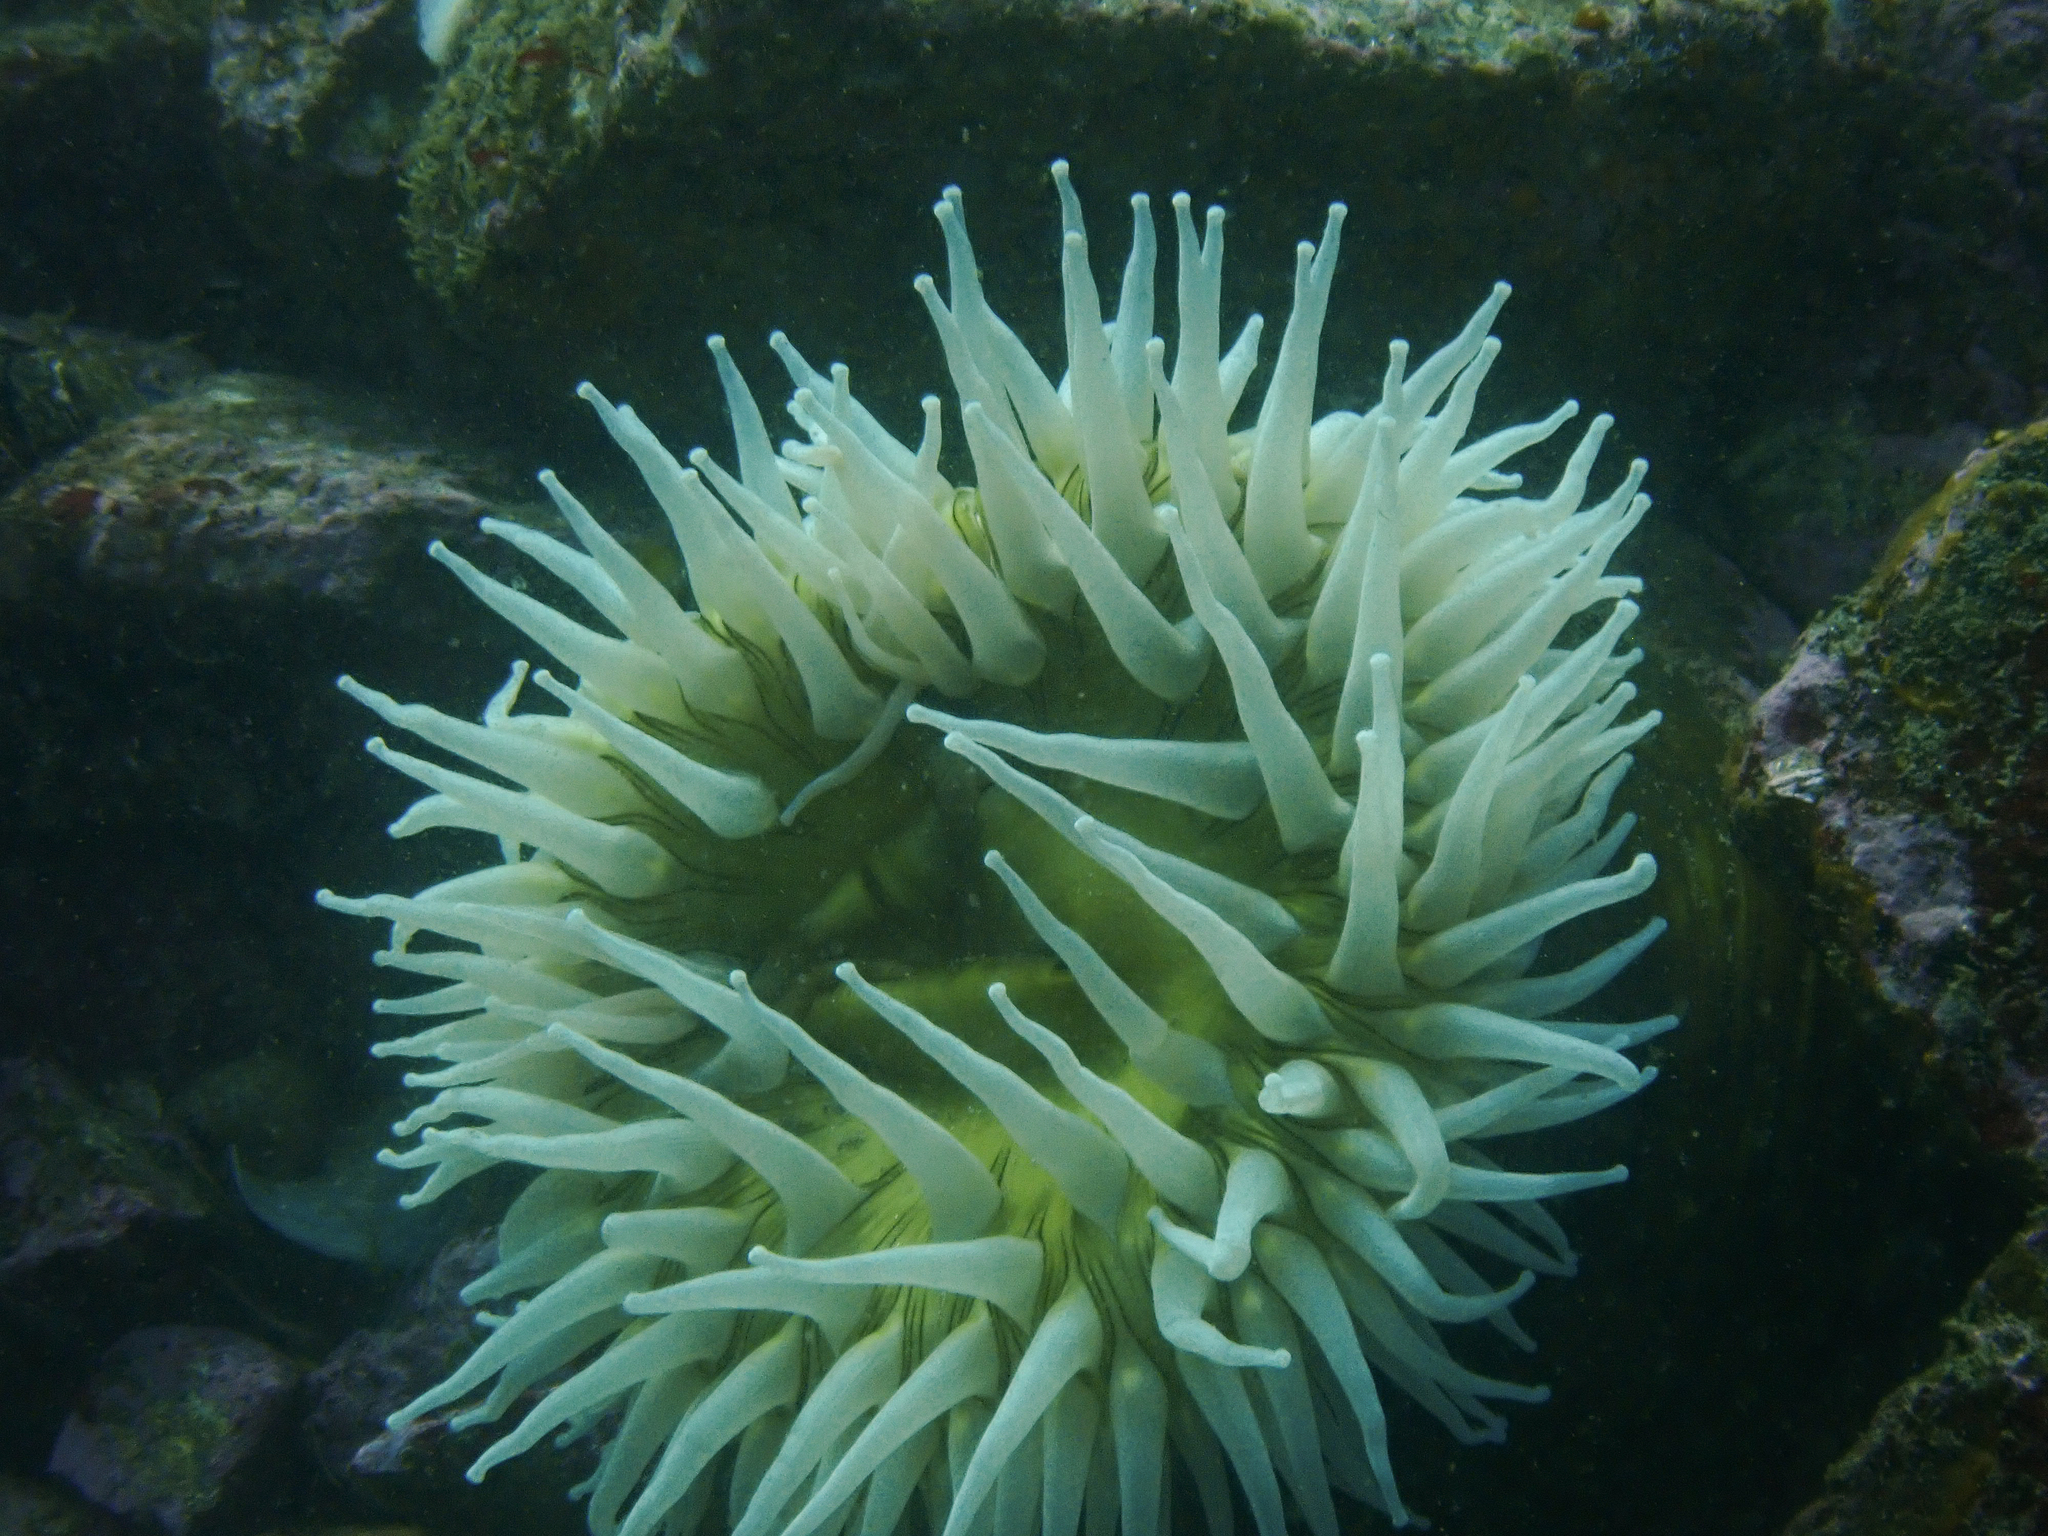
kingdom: Animalia
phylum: Cnidaria
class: Anthozoa
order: Actiniaria
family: Actiniidae
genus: Urticina
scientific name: Urticina piscivora
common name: Velvety red anemone
